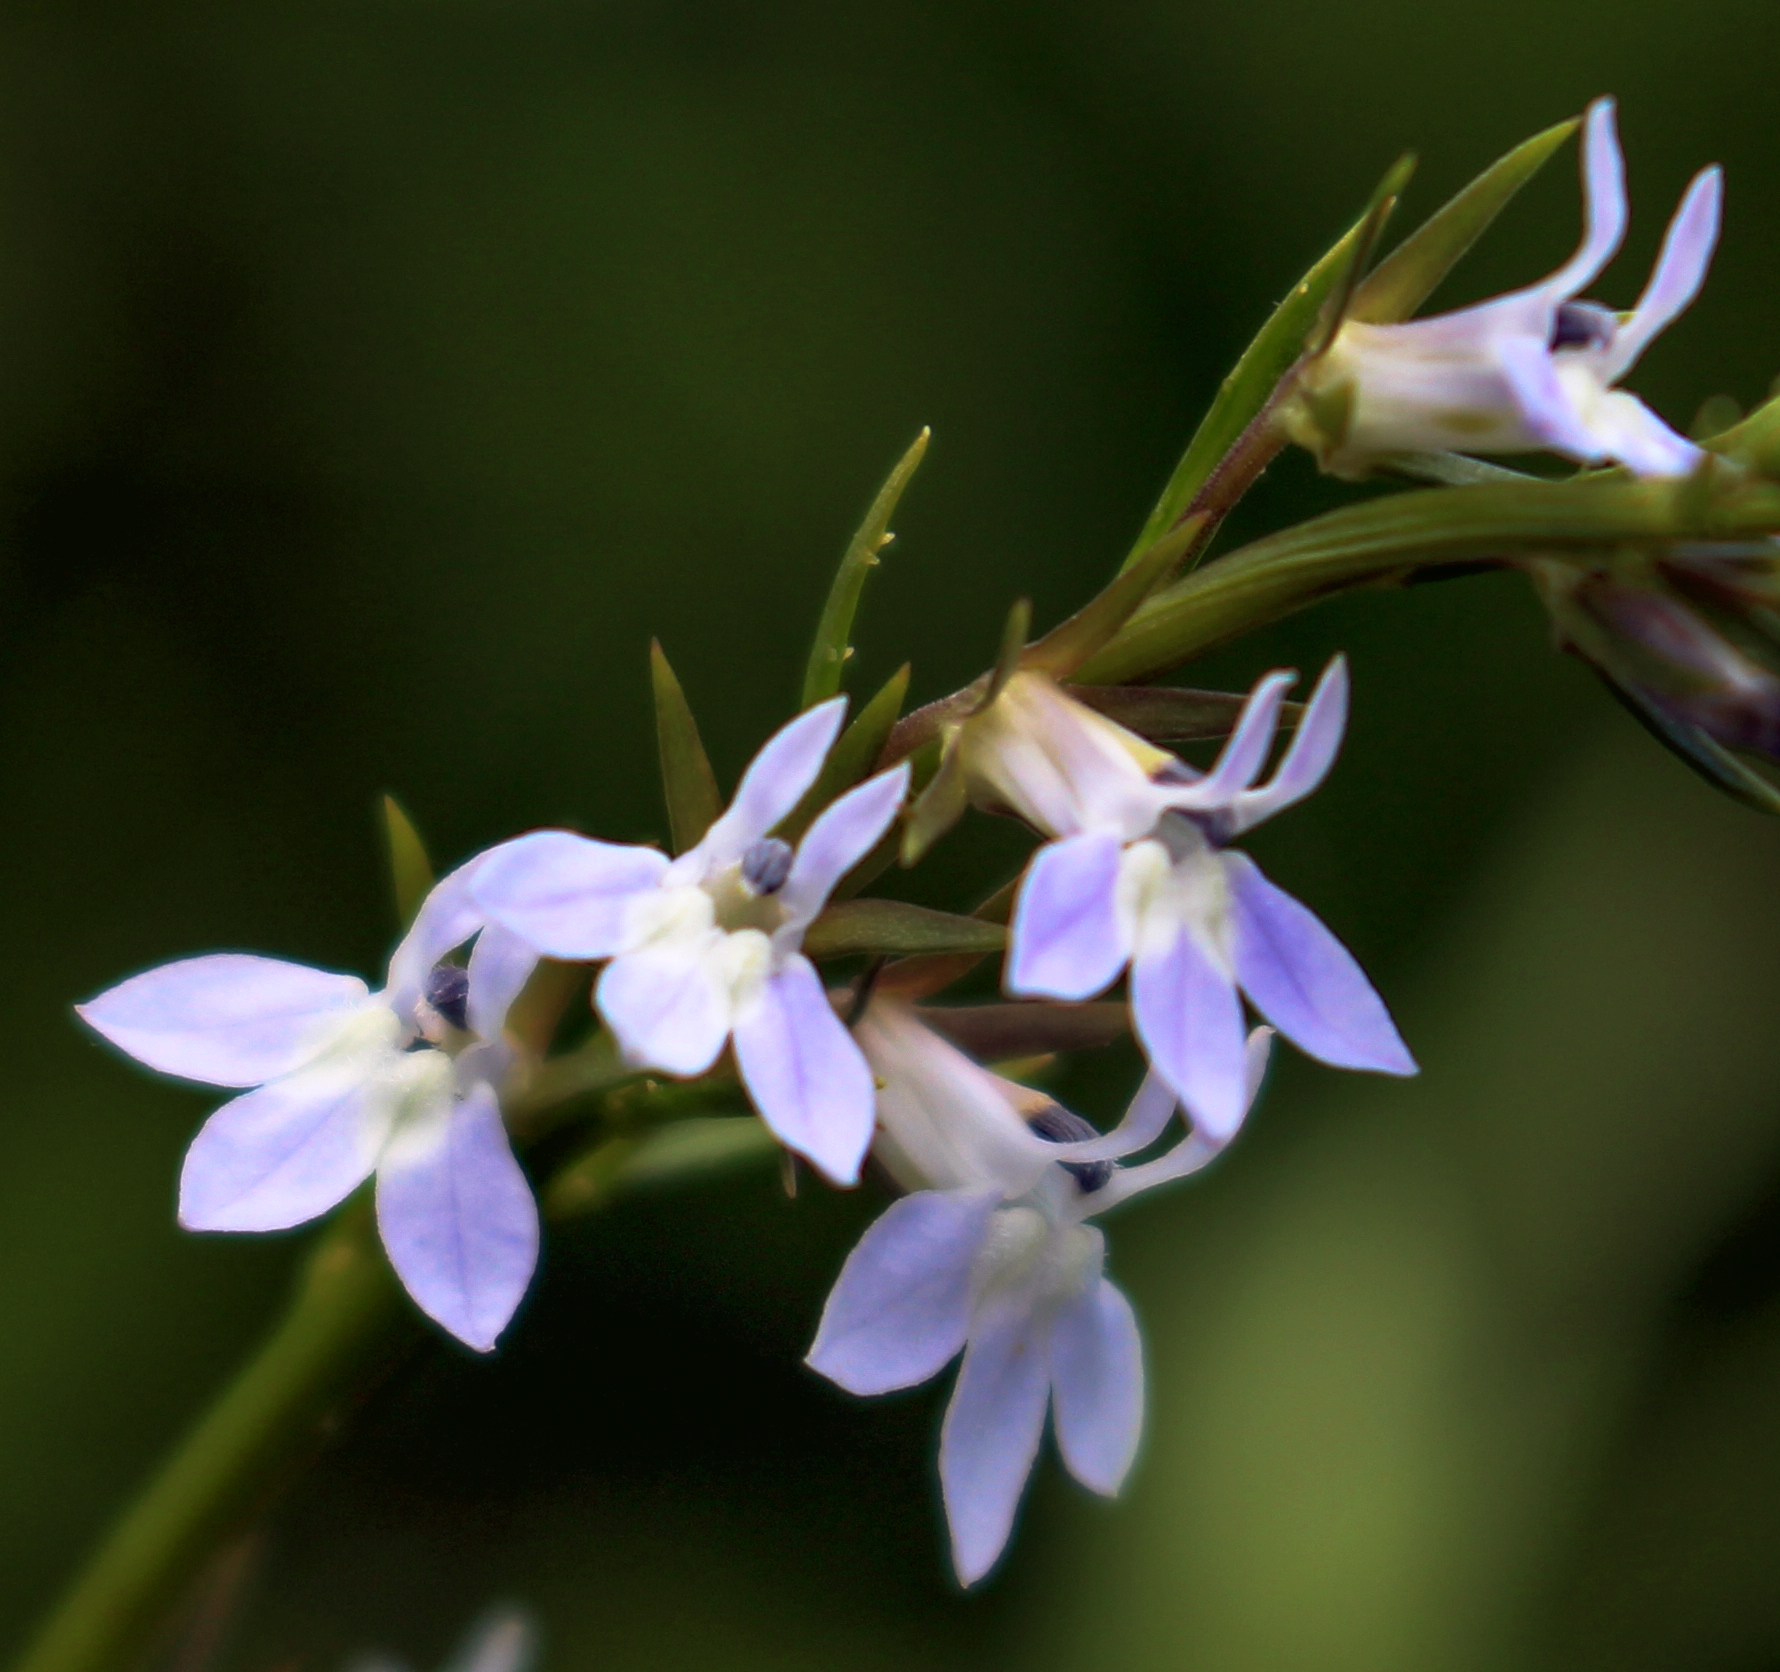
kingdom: Plantae
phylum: Tracheophyta
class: Magnoliopsida
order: Asterales
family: Campanulaceae
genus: Lobelia
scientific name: Lobelia spicata
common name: Pale-spike lobelia
